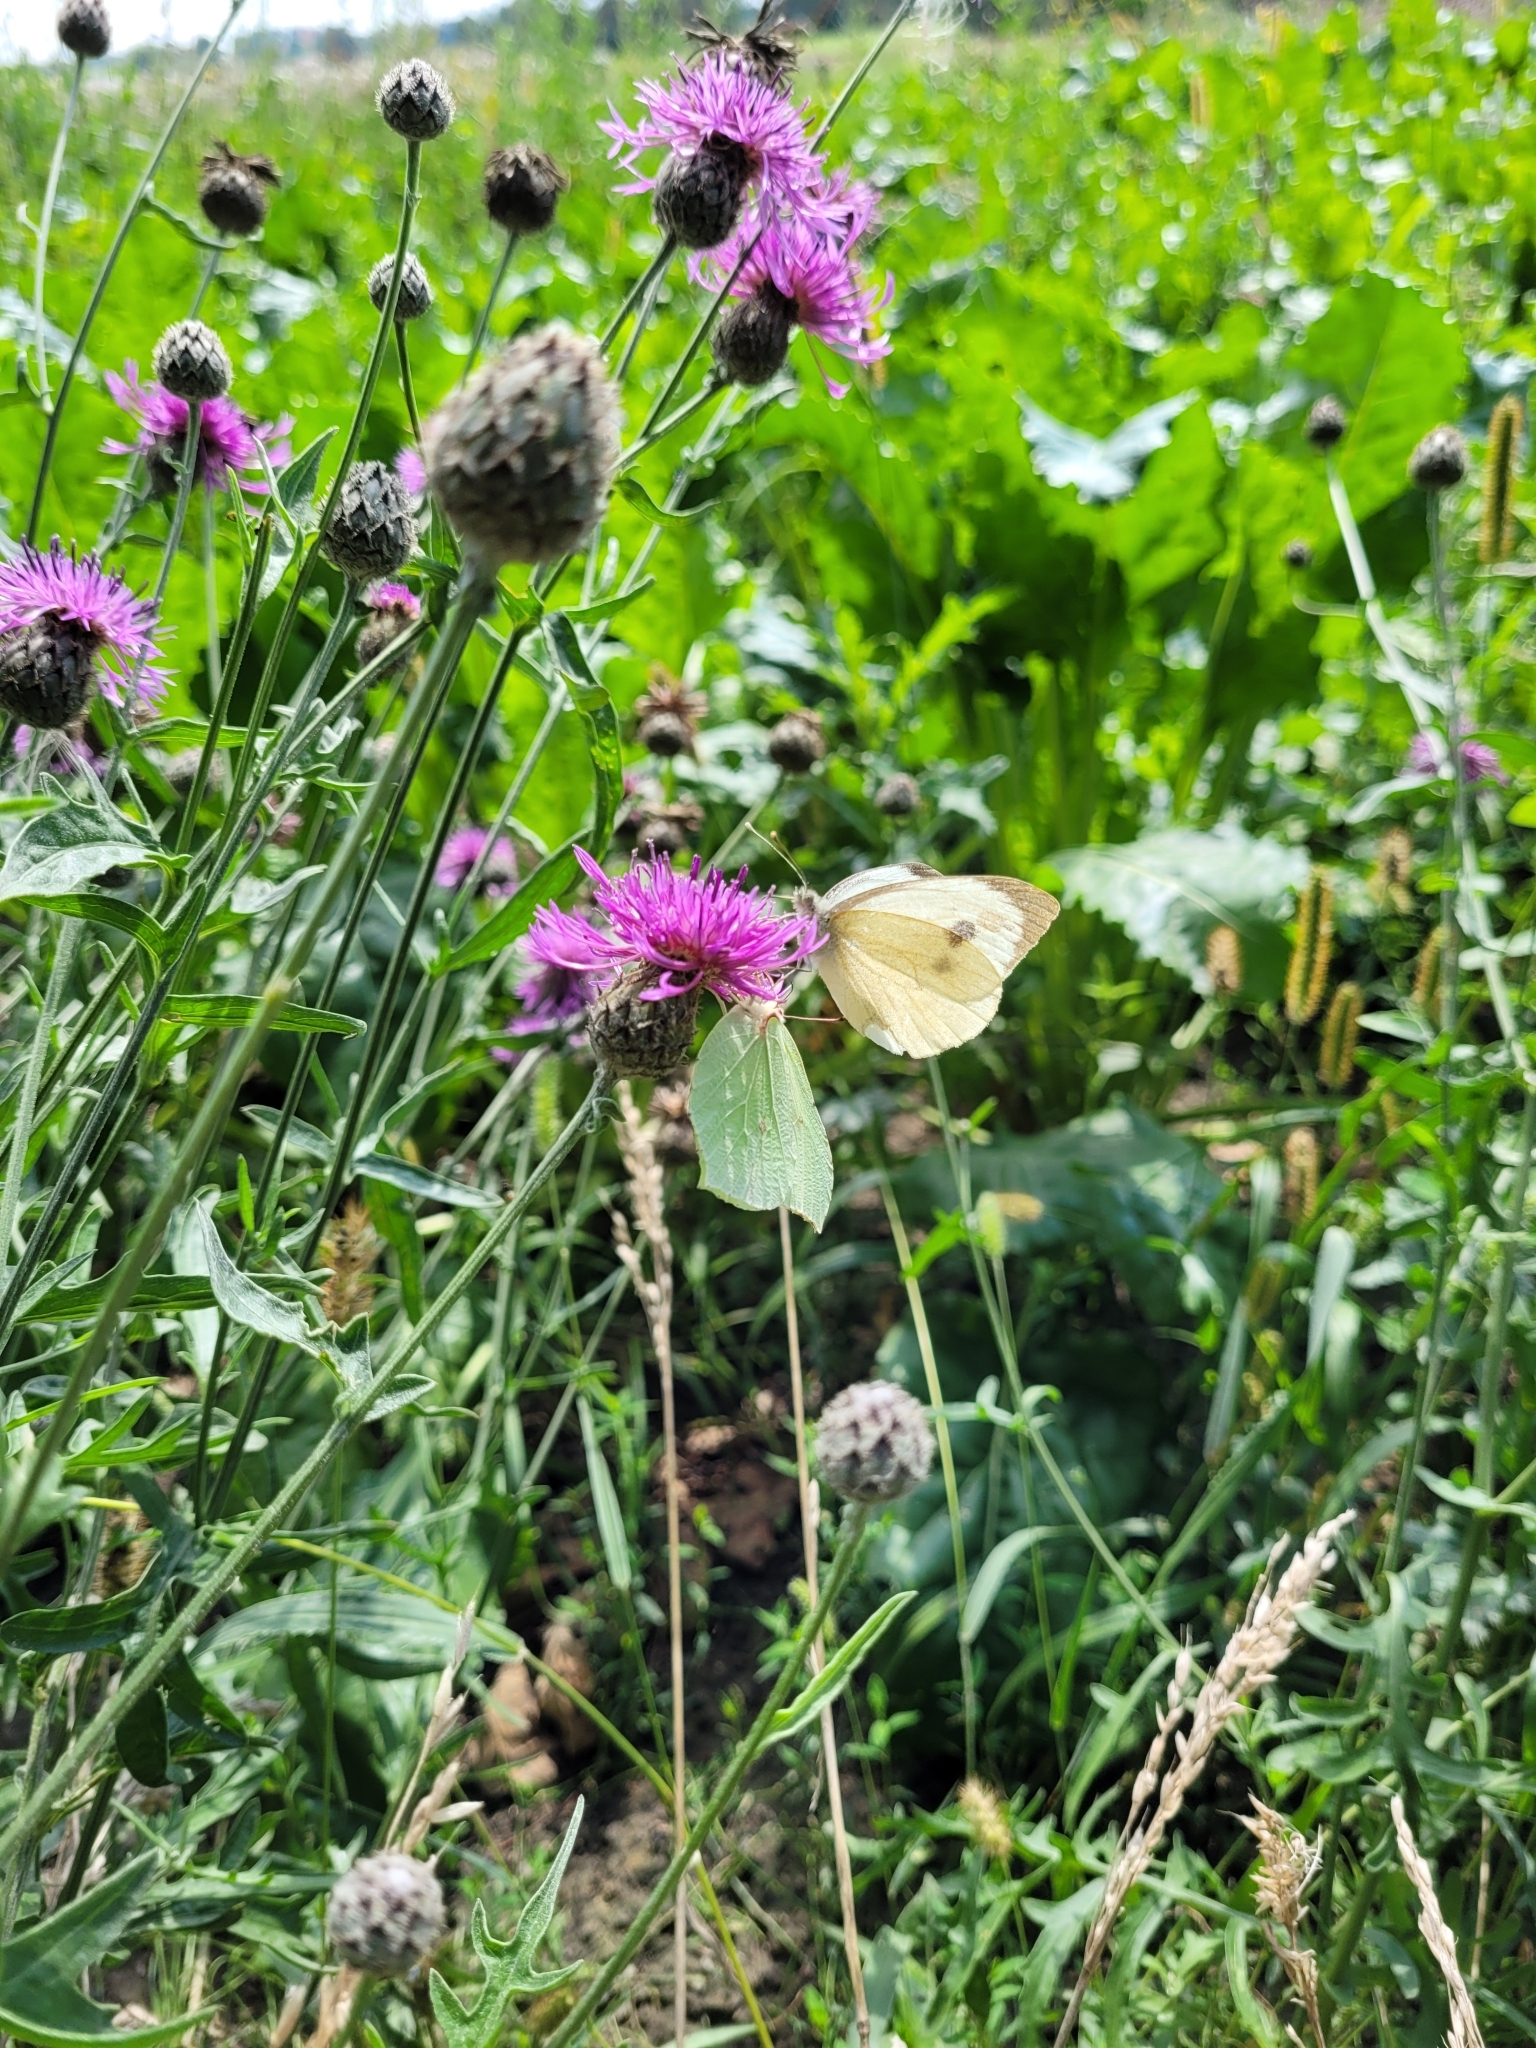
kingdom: Animalia
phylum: Arthropoda
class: Insecta
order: Lepidoptera
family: Pieridae
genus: Pieris
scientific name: Pieris brassicae
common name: Large white
